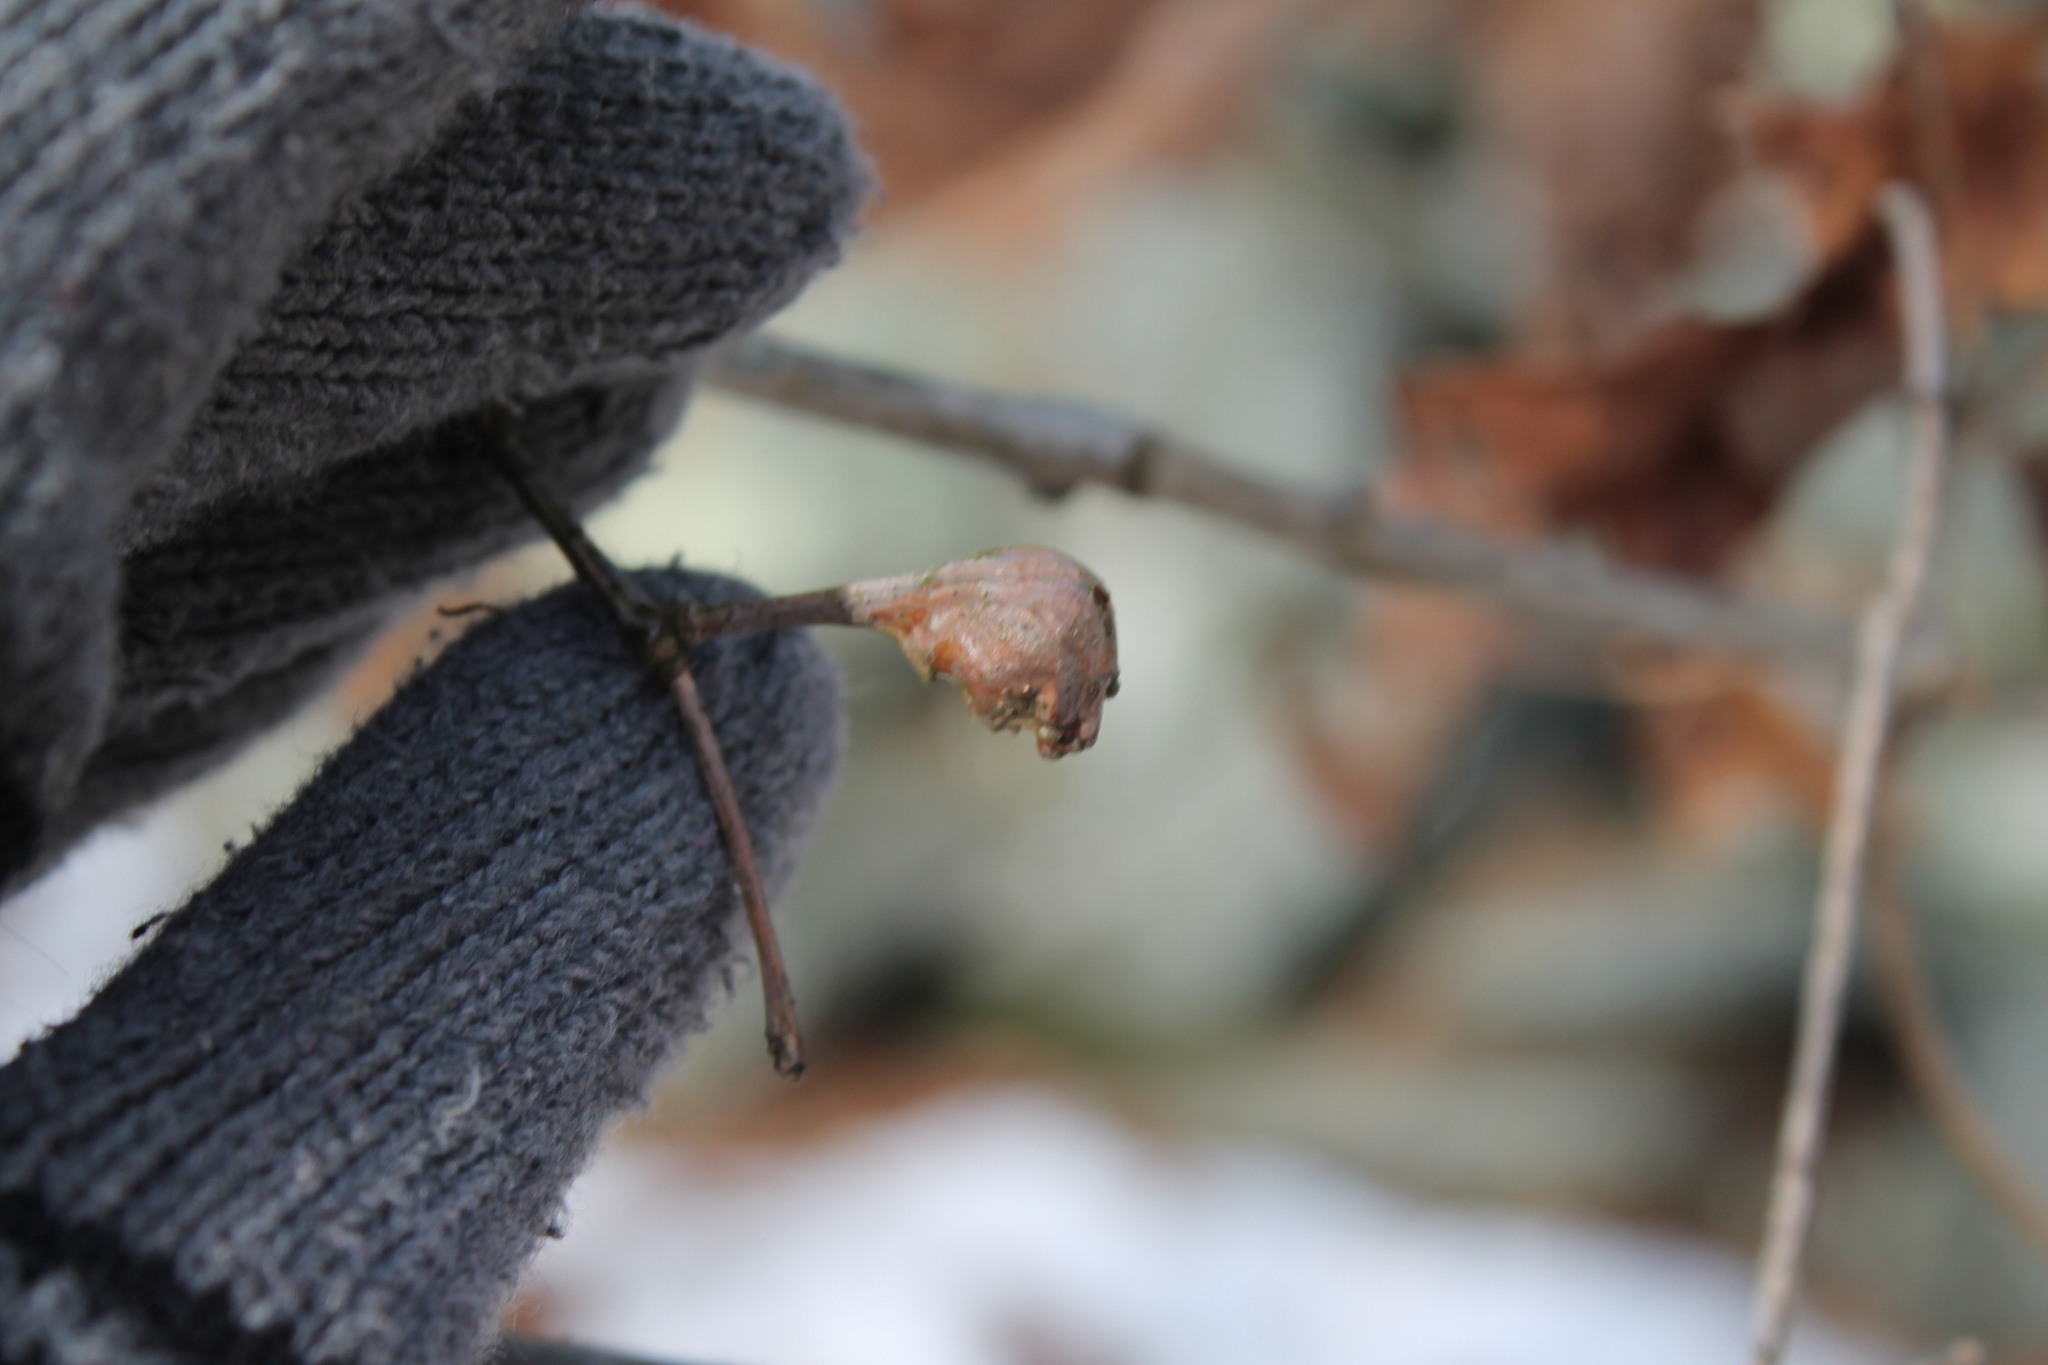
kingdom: Animalia
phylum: Arthropoda
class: Insecta
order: Hymenoptera
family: Cynipidae
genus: Callirhytis
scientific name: Callirhytis clavula
